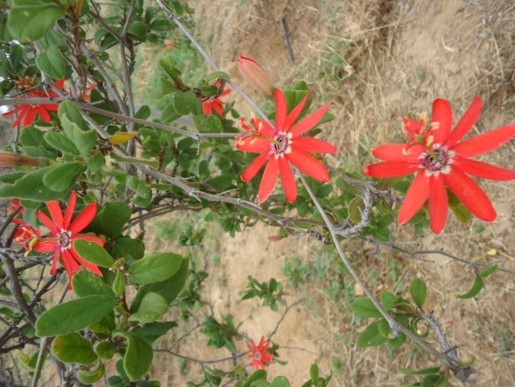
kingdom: Plantae
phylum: Tracheophyta
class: Magnoliopsida
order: Malpighiales
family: Passifloraceae
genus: Passiflora
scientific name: Passiflora edmundoi
